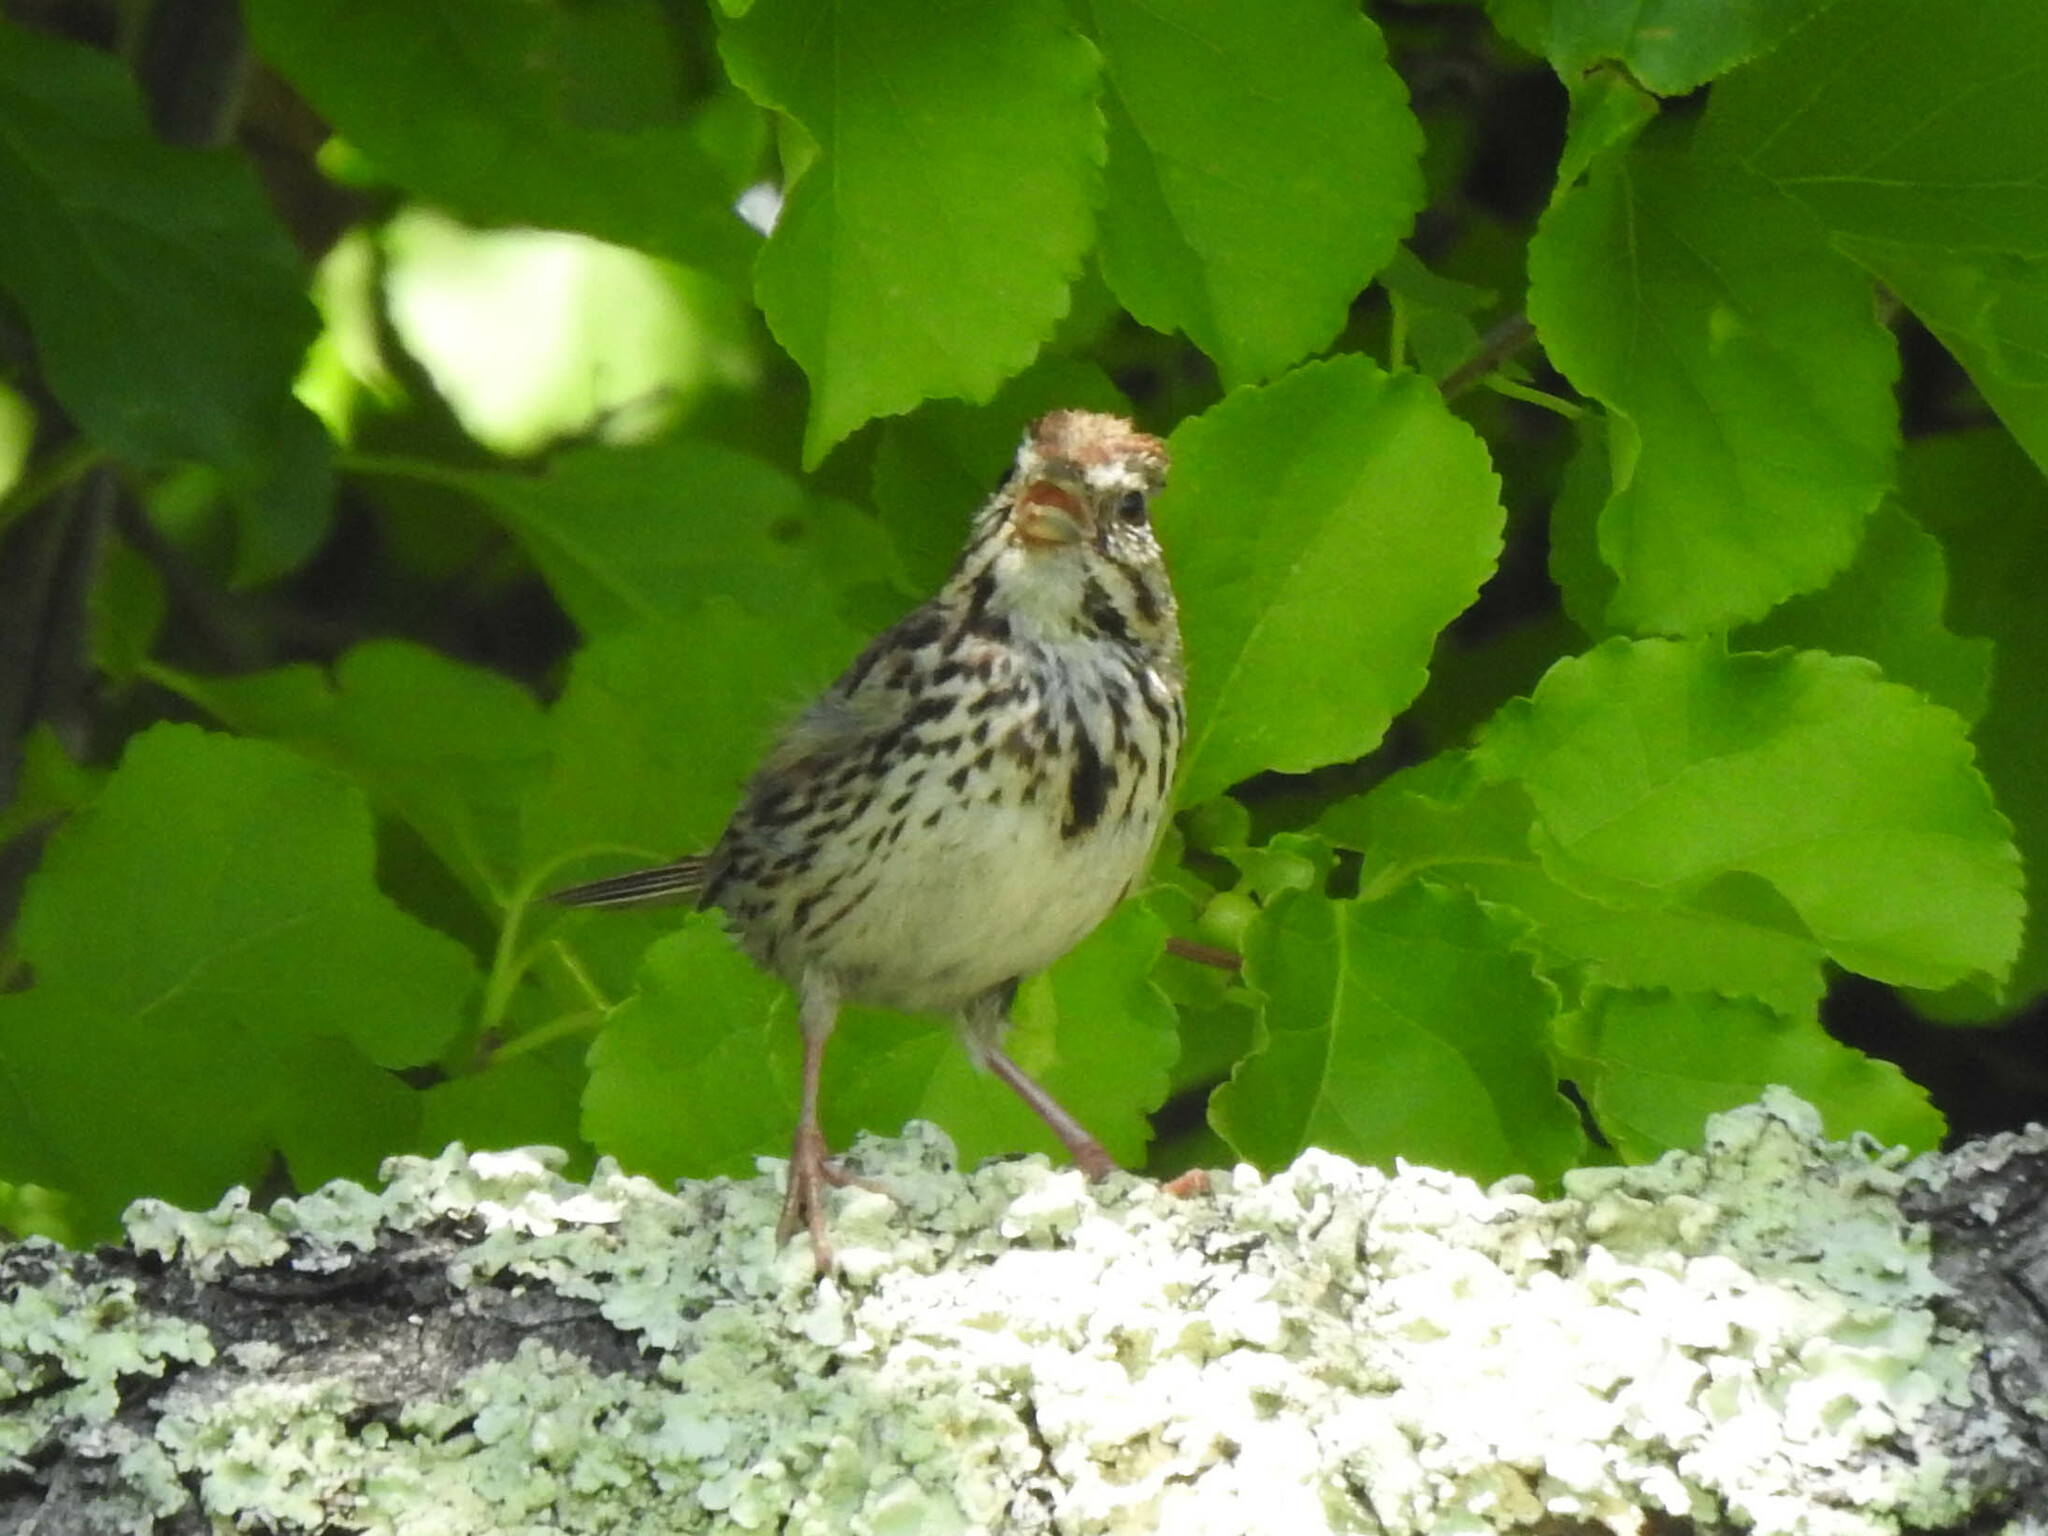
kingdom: Animalia
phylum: Chordata
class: Aves
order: Passeriformes
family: Passerellidae
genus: Melospiza
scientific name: Melospiza melodia
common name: Song sparrow
